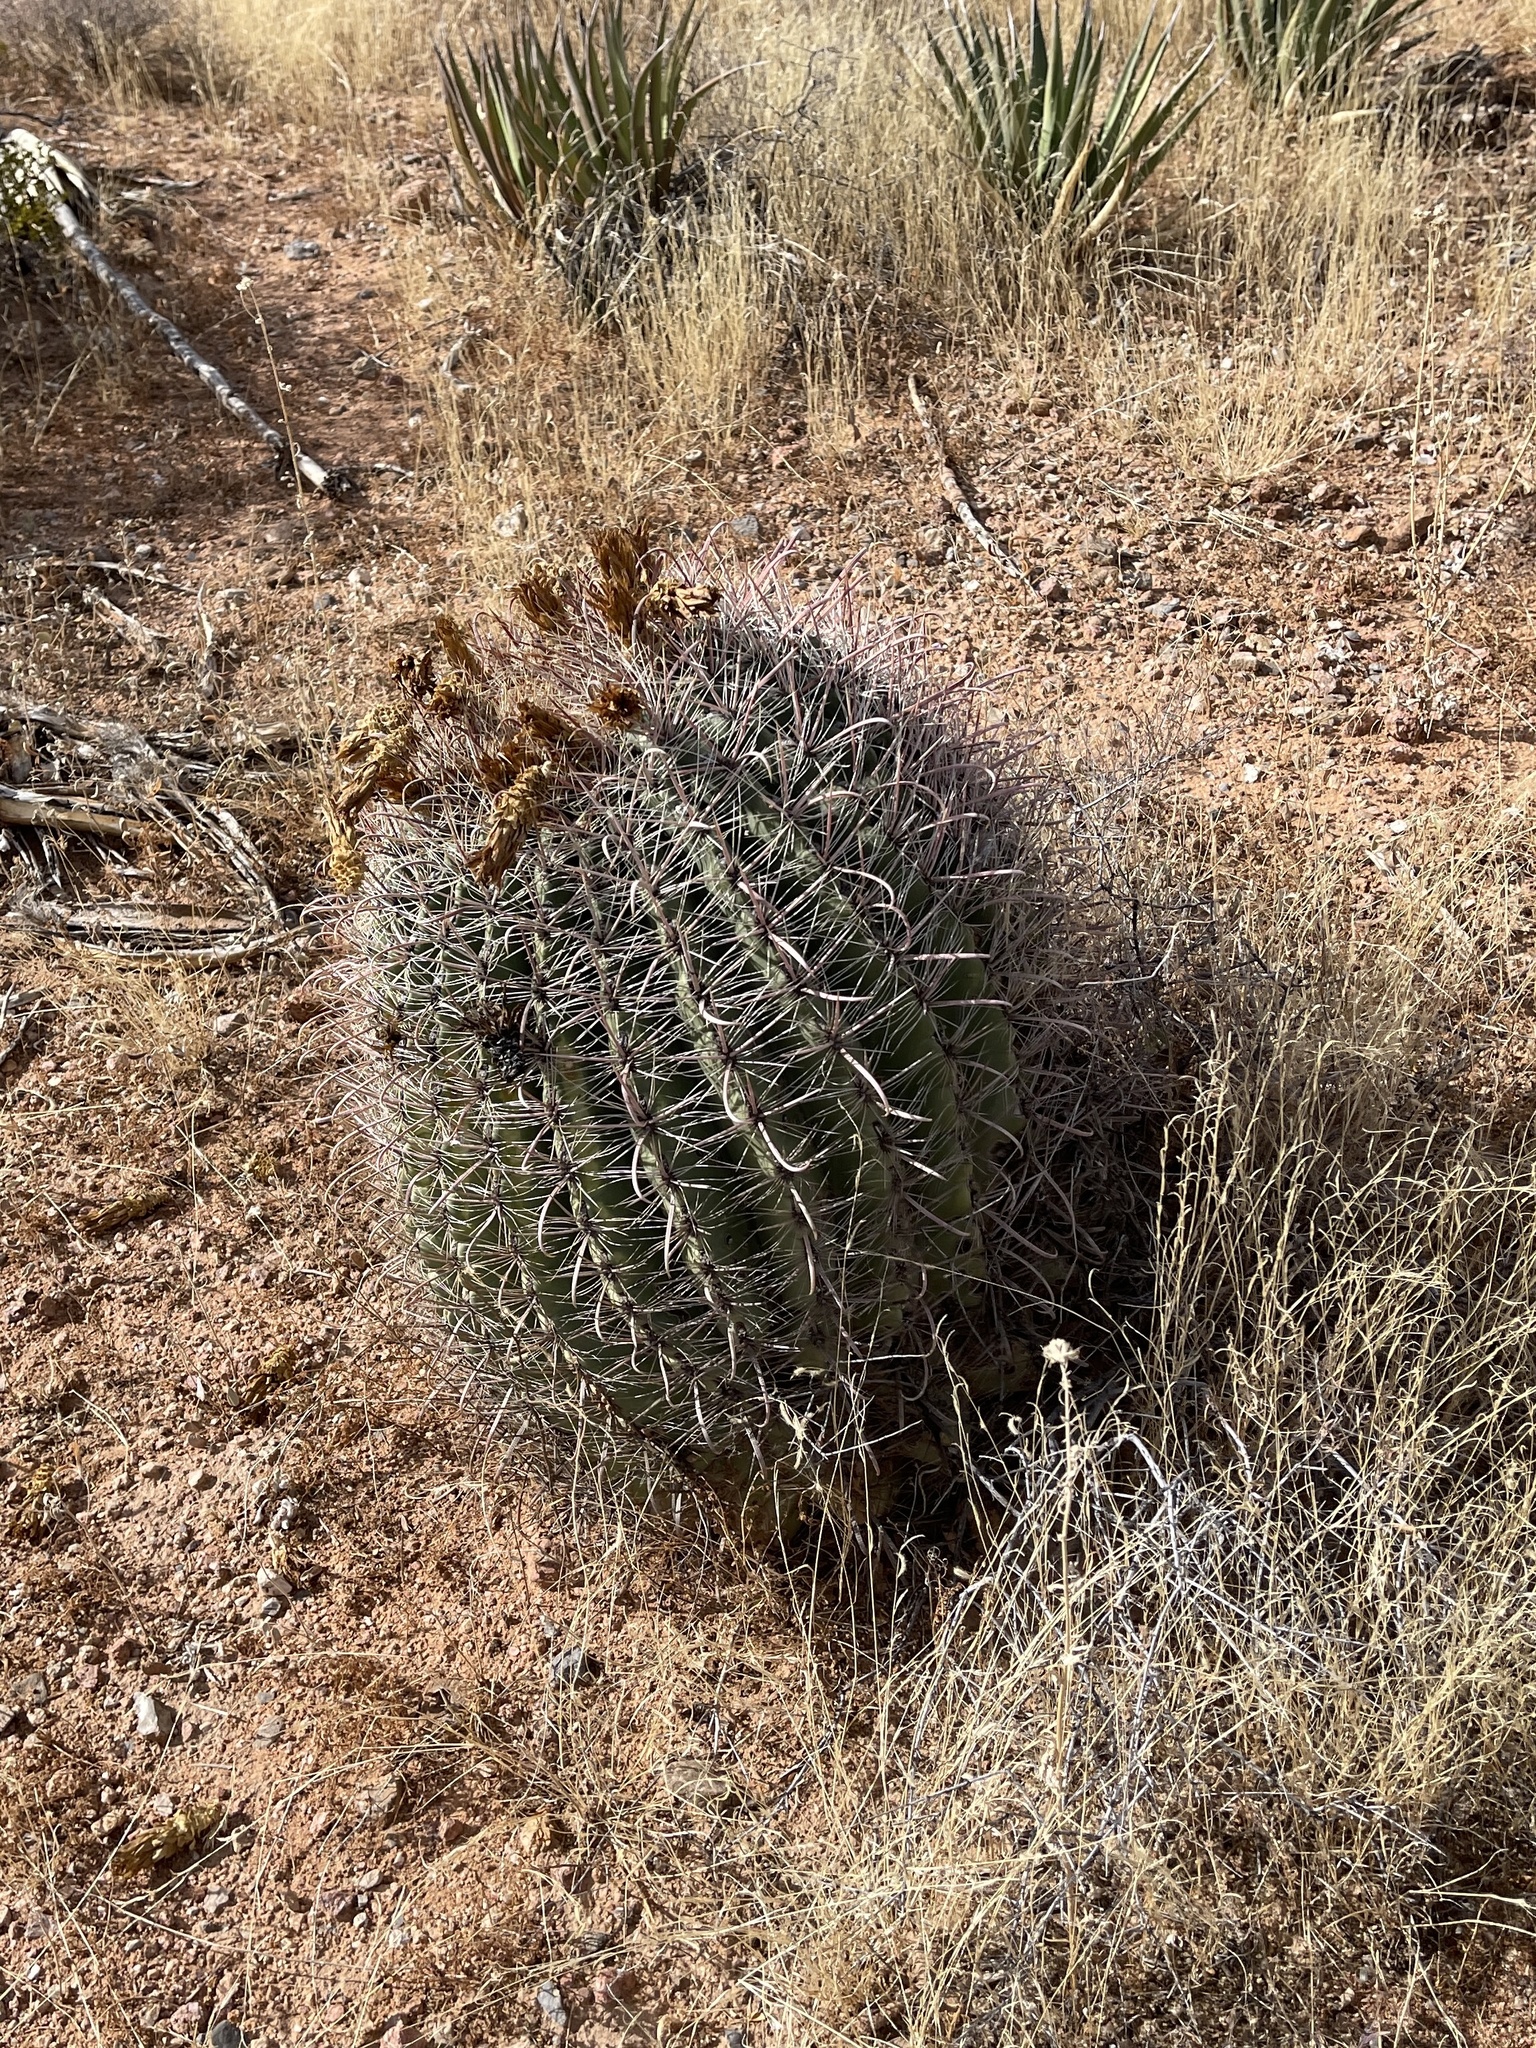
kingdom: Plantae
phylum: Tracheophyta
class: Magnoliopsida
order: Caryophyllales
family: Cactaceae
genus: Ferocactus
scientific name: Ferocactus wislizeni
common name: Candy barrel cactus
